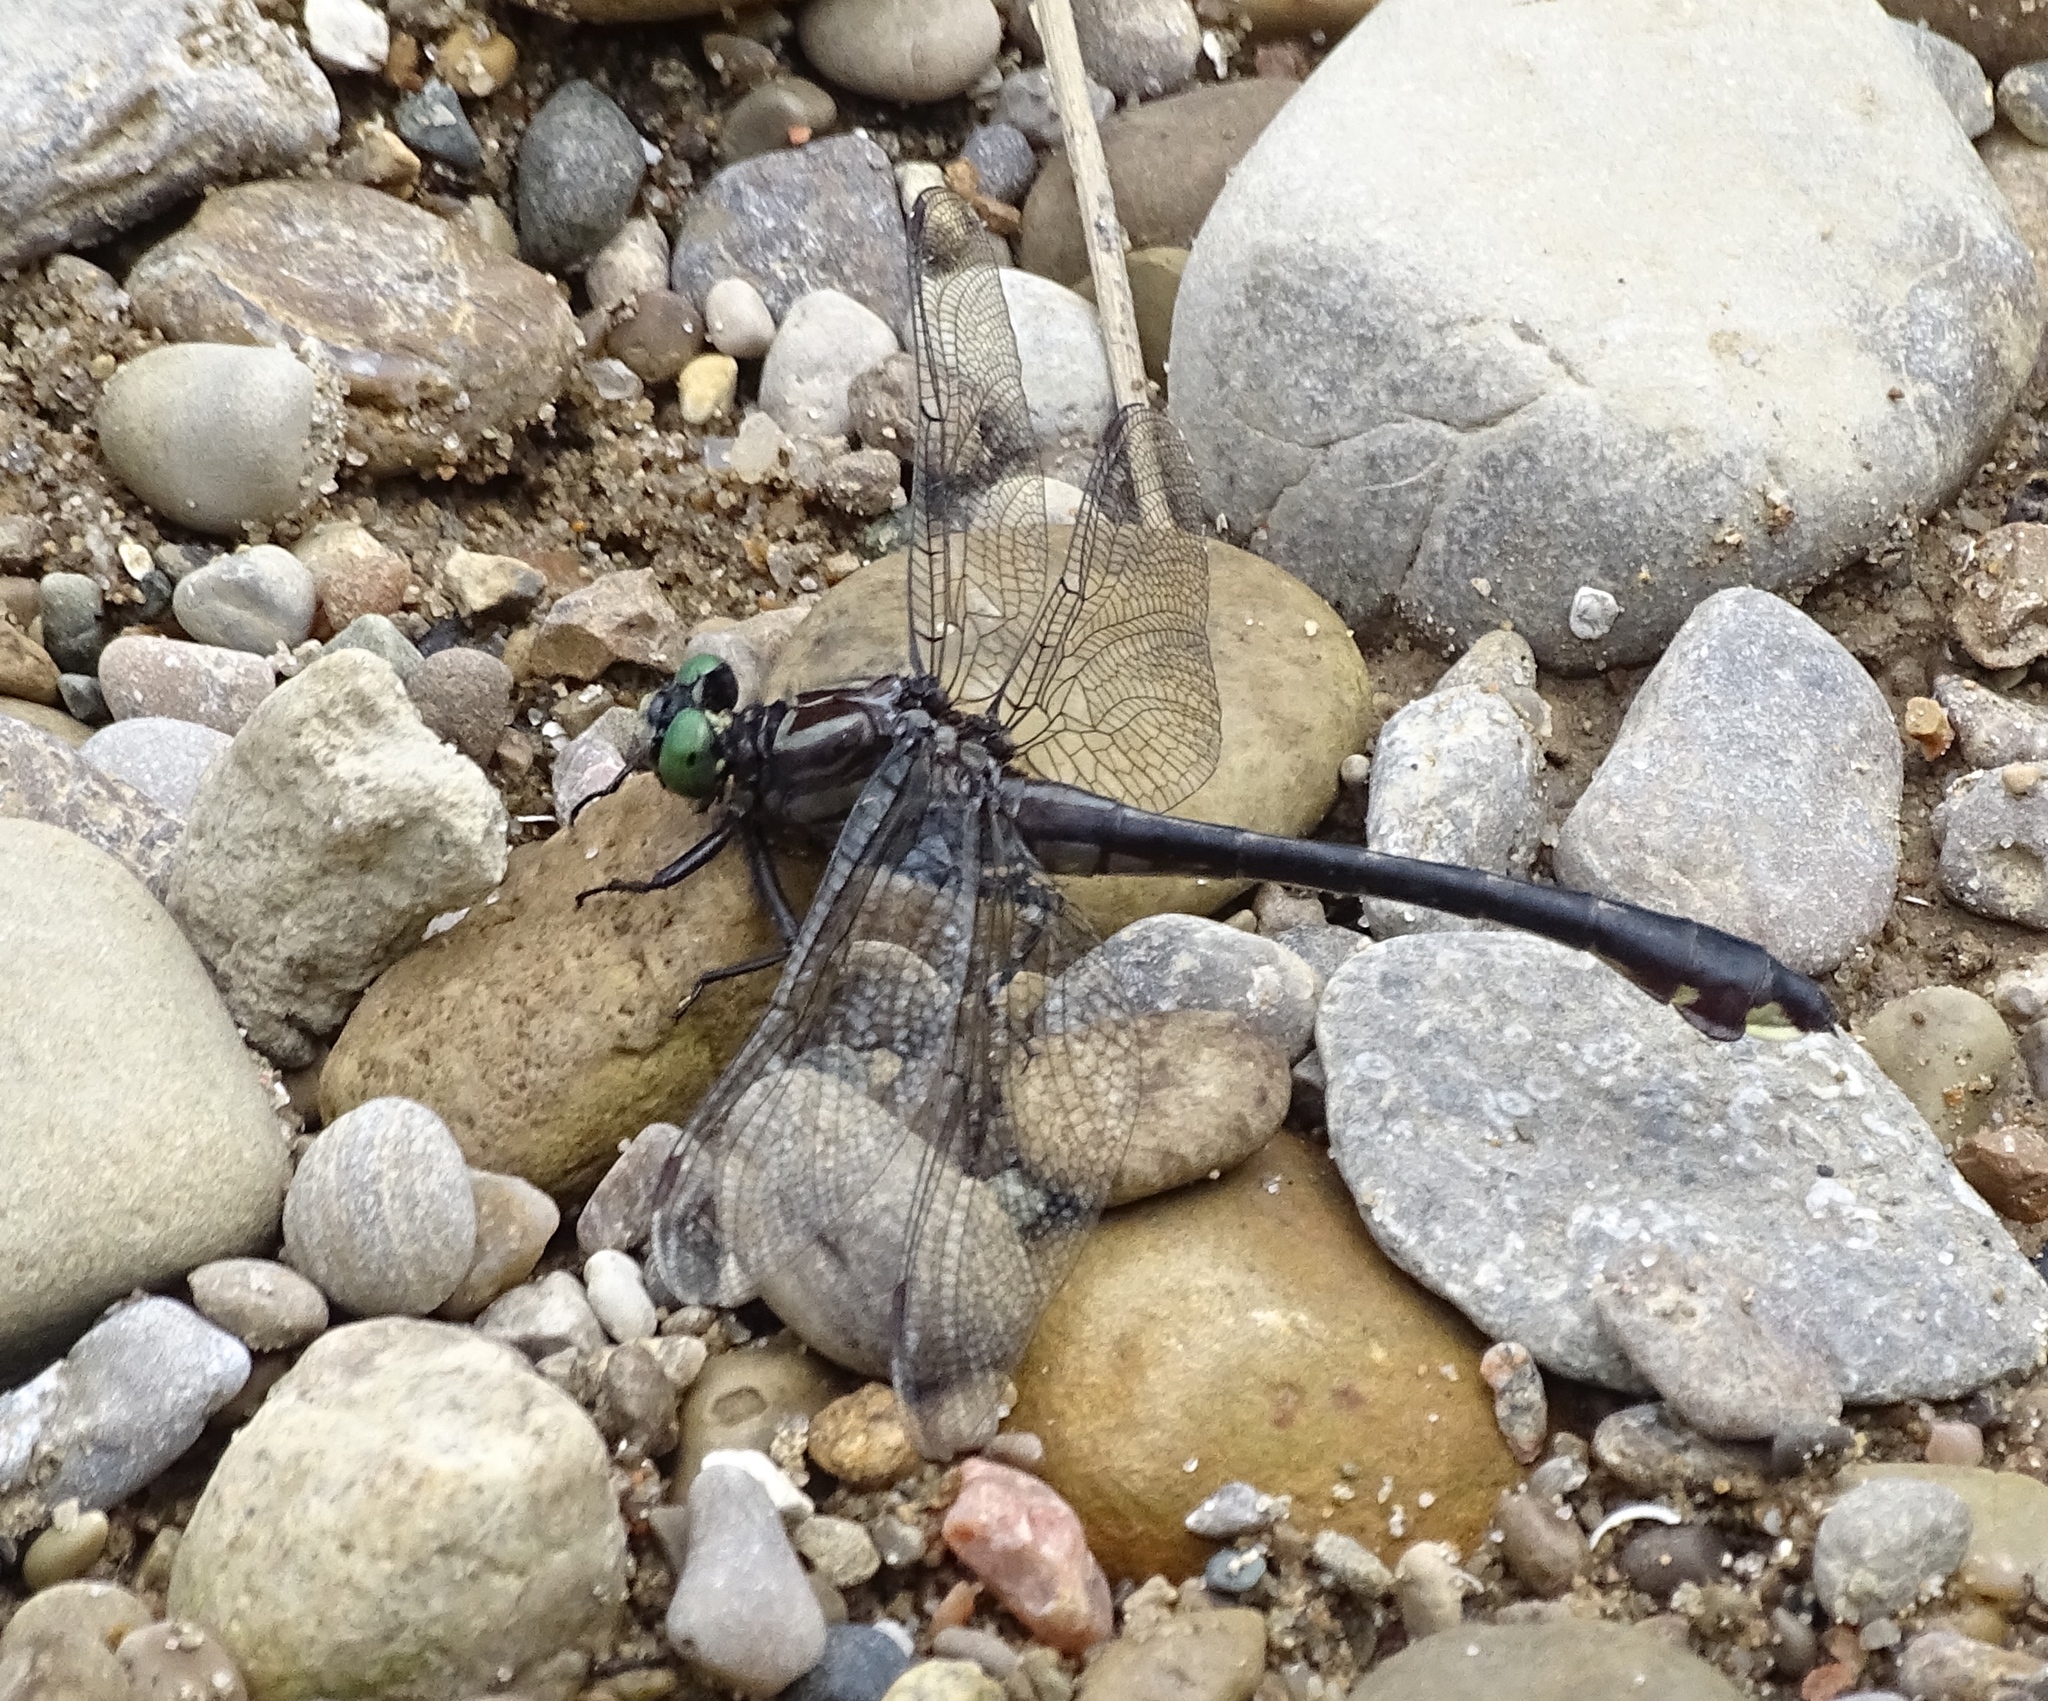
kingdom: Animalia
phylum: Arthropoda
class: Insecta
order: Odonata
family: Gomphidae
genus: Gomphurus
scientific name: Gomphurus vastus
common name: Cobra clubtail
